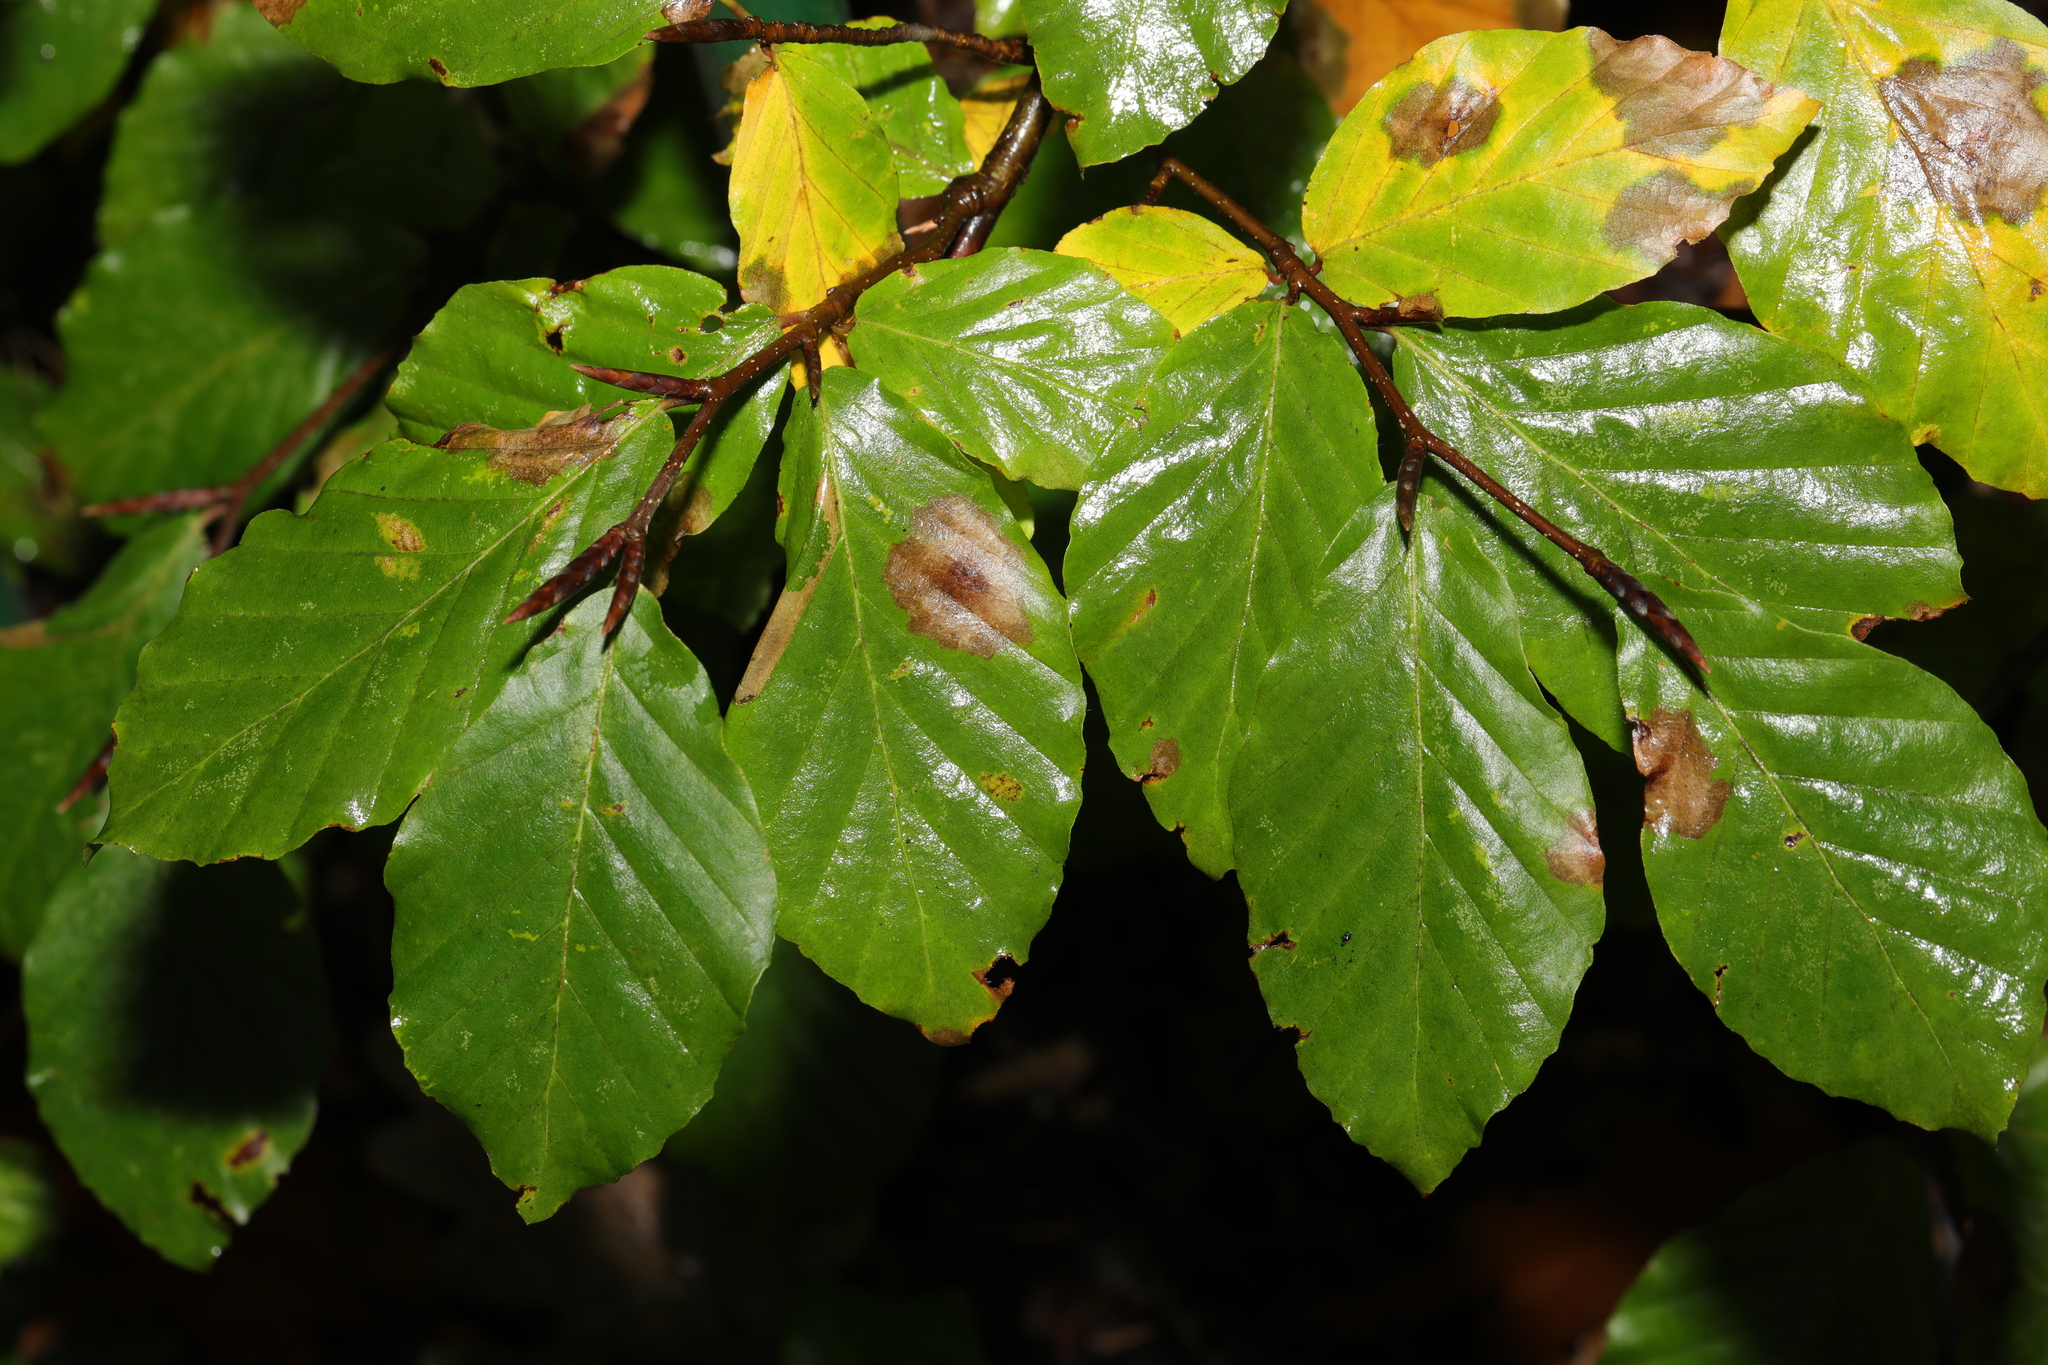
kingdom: Plantae
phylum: Tracheophyta
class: Magnoliopsida
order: Fagales
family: Fagaceae
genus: Fagus
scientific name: Fagus sylvatica
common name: Beech
